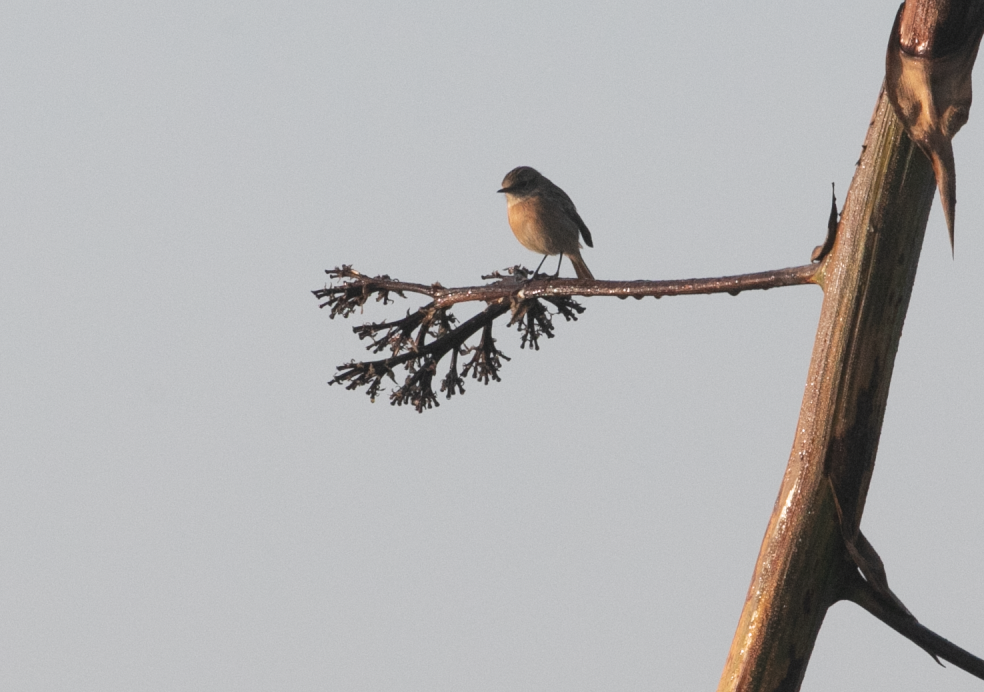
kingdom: Animalia
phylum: Chordata
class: Aves
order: Passeriformes
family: Muscicapidae
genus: Saxicola
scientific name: Saxicola rubicola
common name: European stonechat
